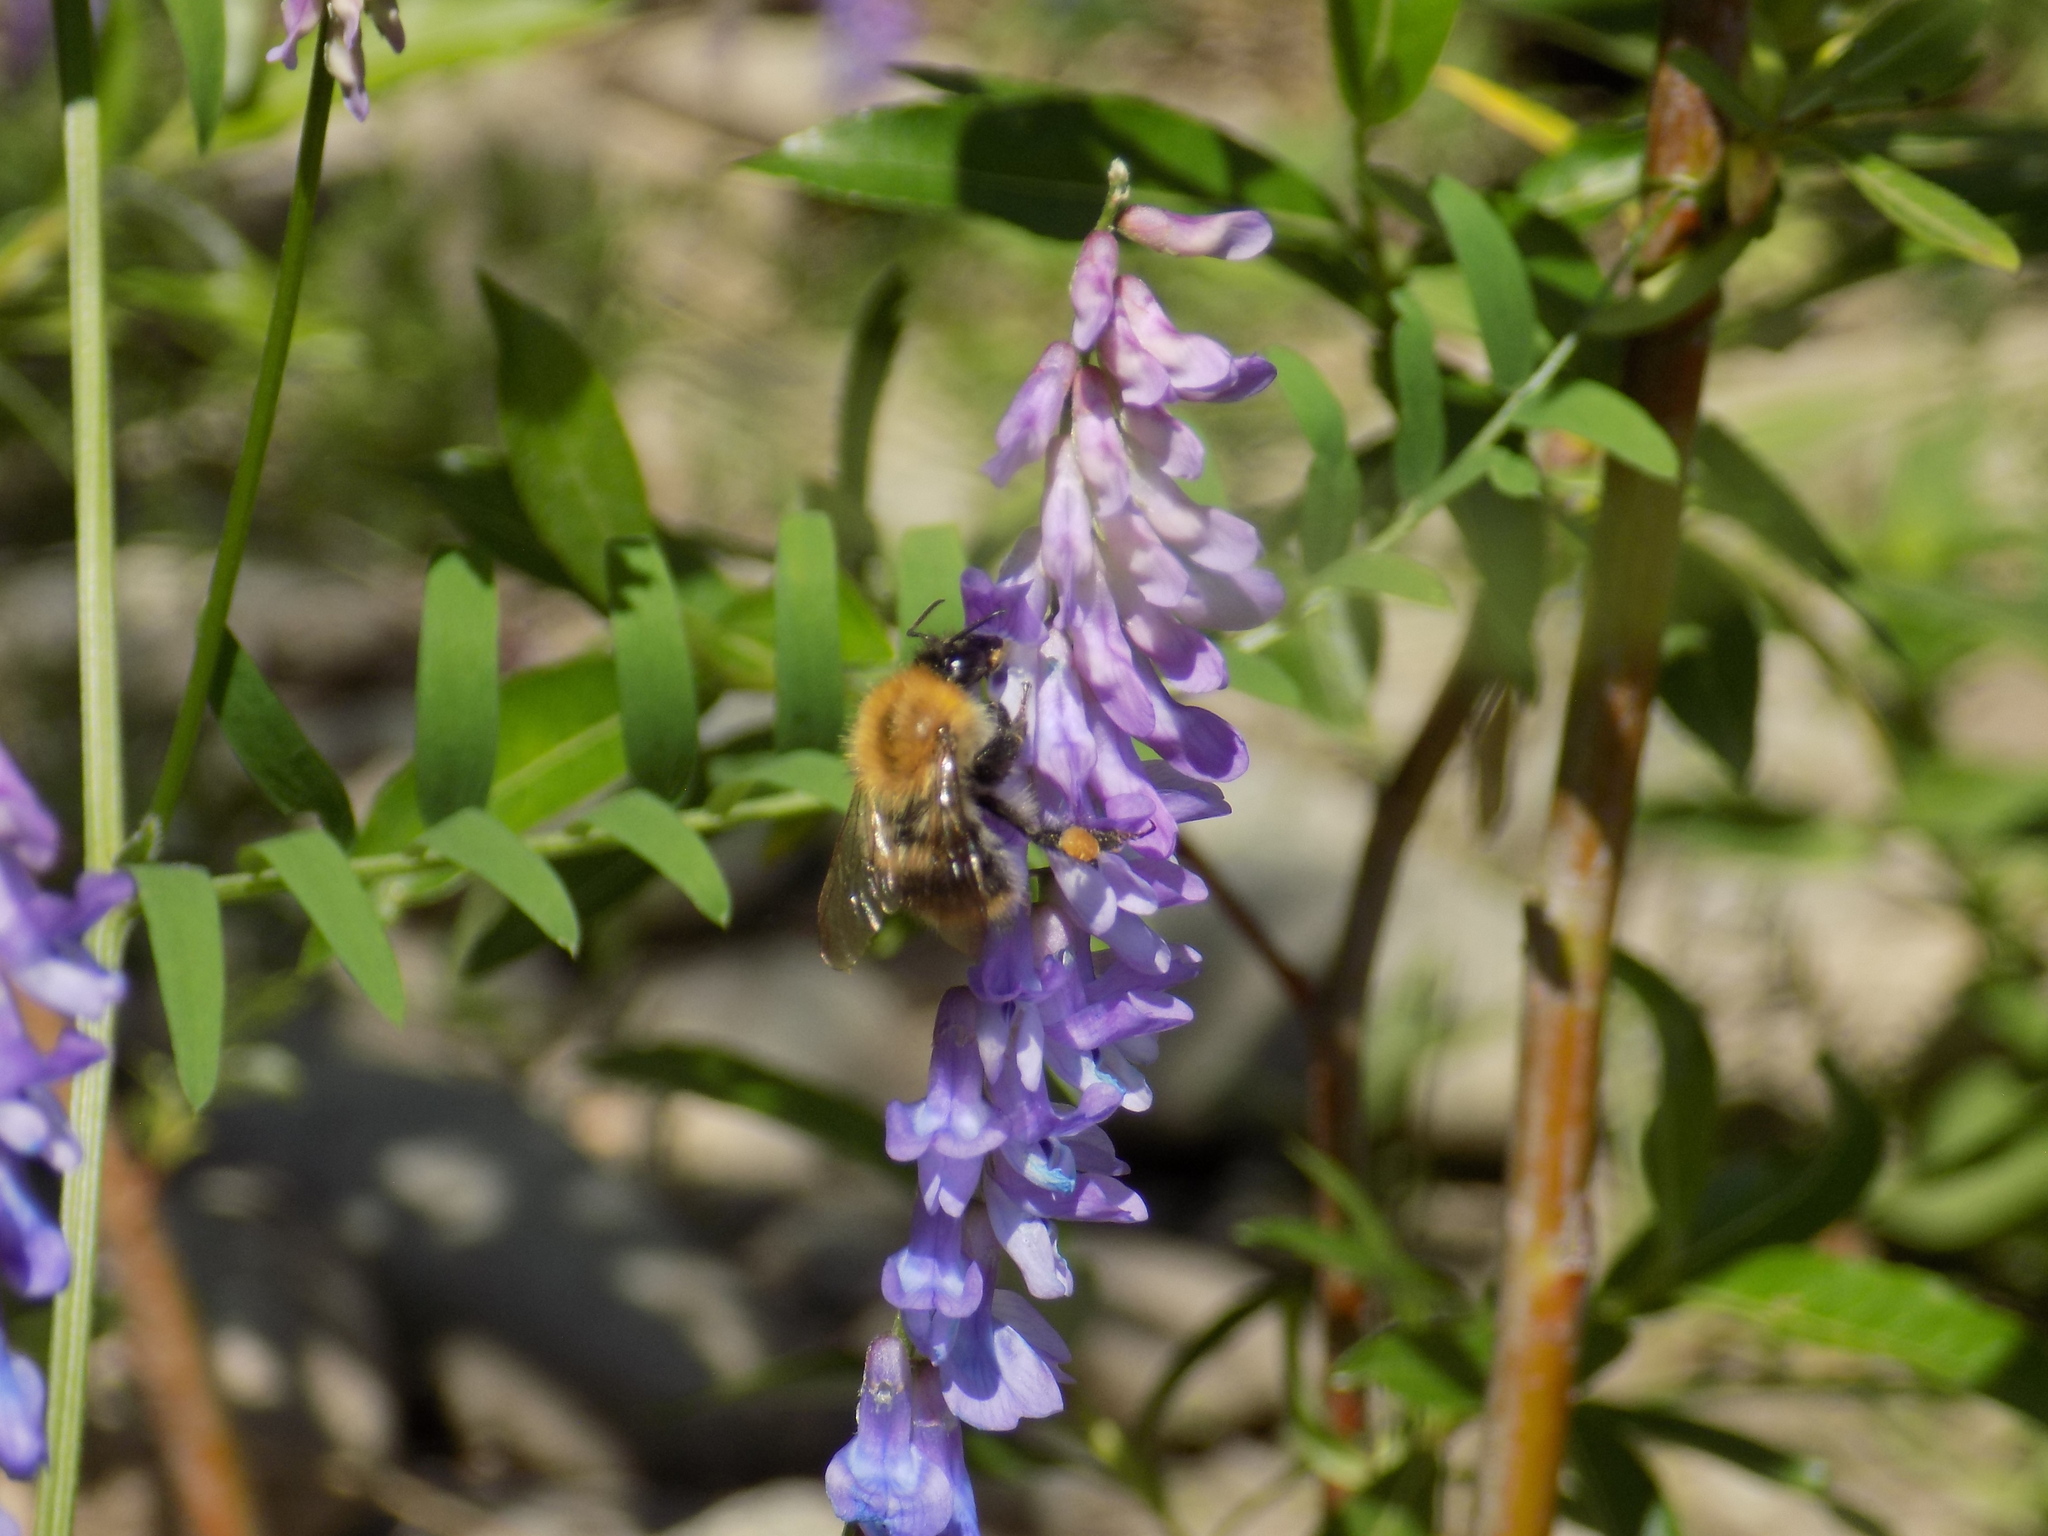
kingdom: Animalia
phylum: Arthropoda
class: Insecta
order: Hymenoptera
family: Apidae
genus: Bombus
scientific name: Bombus pascuorum
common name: Common carder bee
